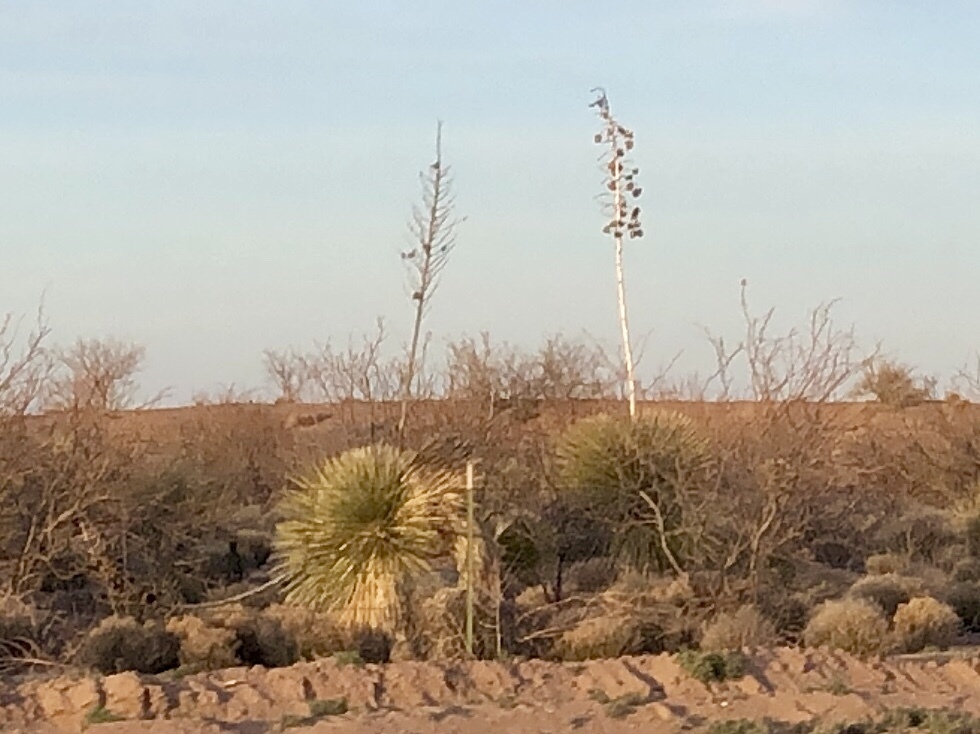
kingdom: Plantae
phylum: Tracheophyta
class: Liliopsida
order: Asparagales
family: Asparagaceae
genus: Yucca
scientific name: Yucca elata
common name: Palmella
